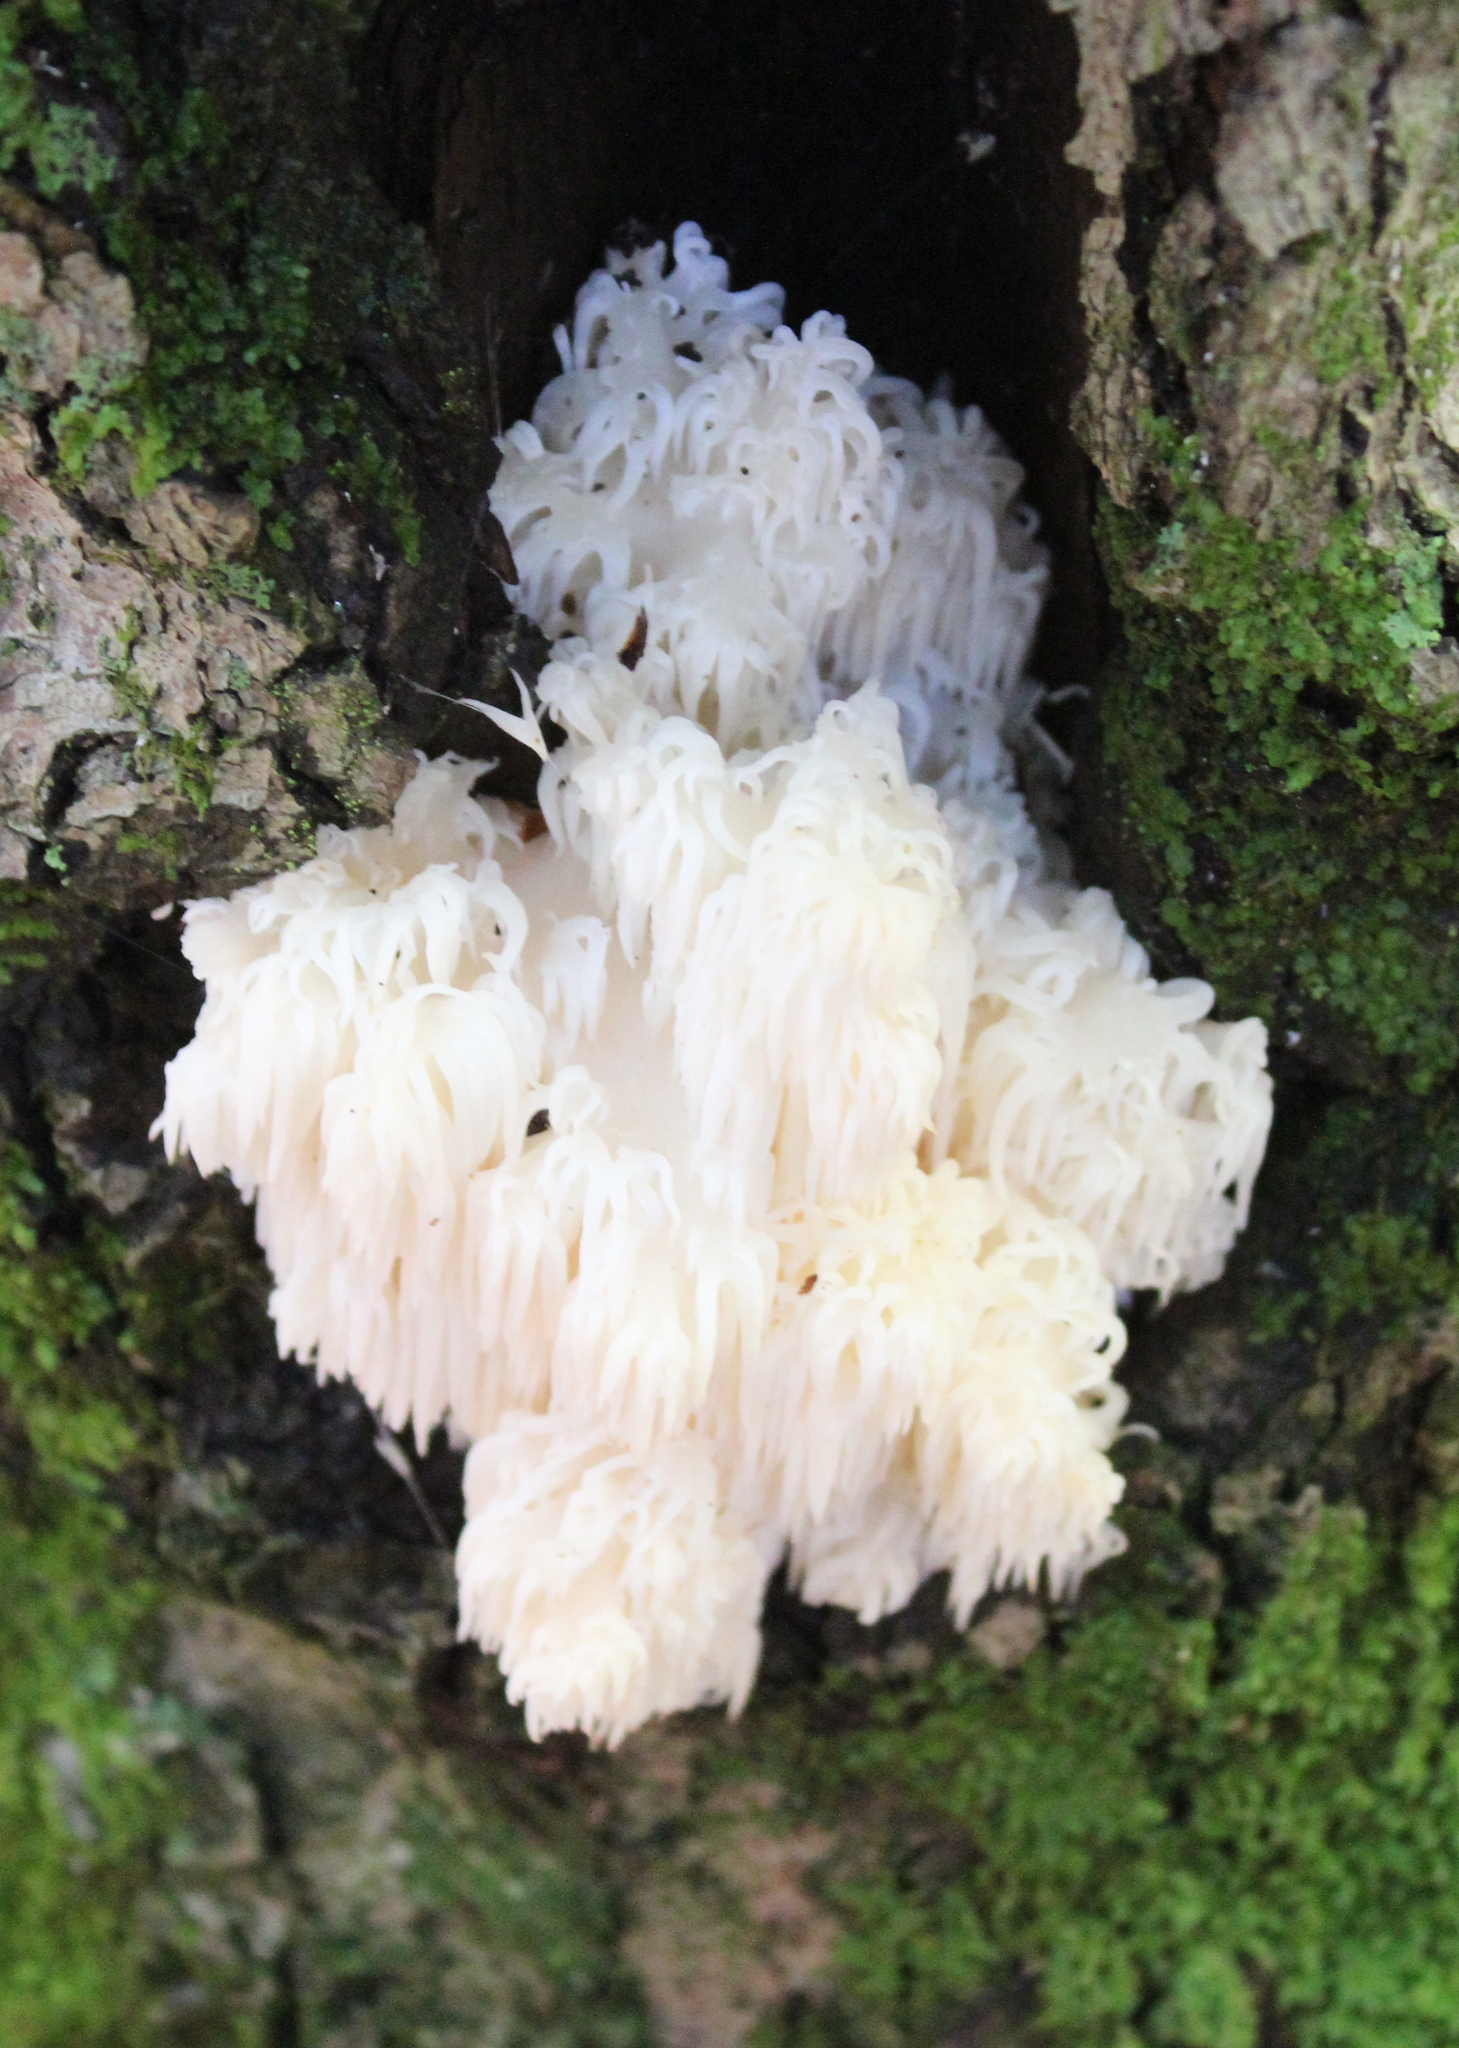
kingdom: Fungi
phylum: Basidiomycota
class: Agaricomycetes
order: Russulales
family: Hericiaceae
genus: Hericium
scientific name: Hericium americanum
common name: Bear's head tooth
